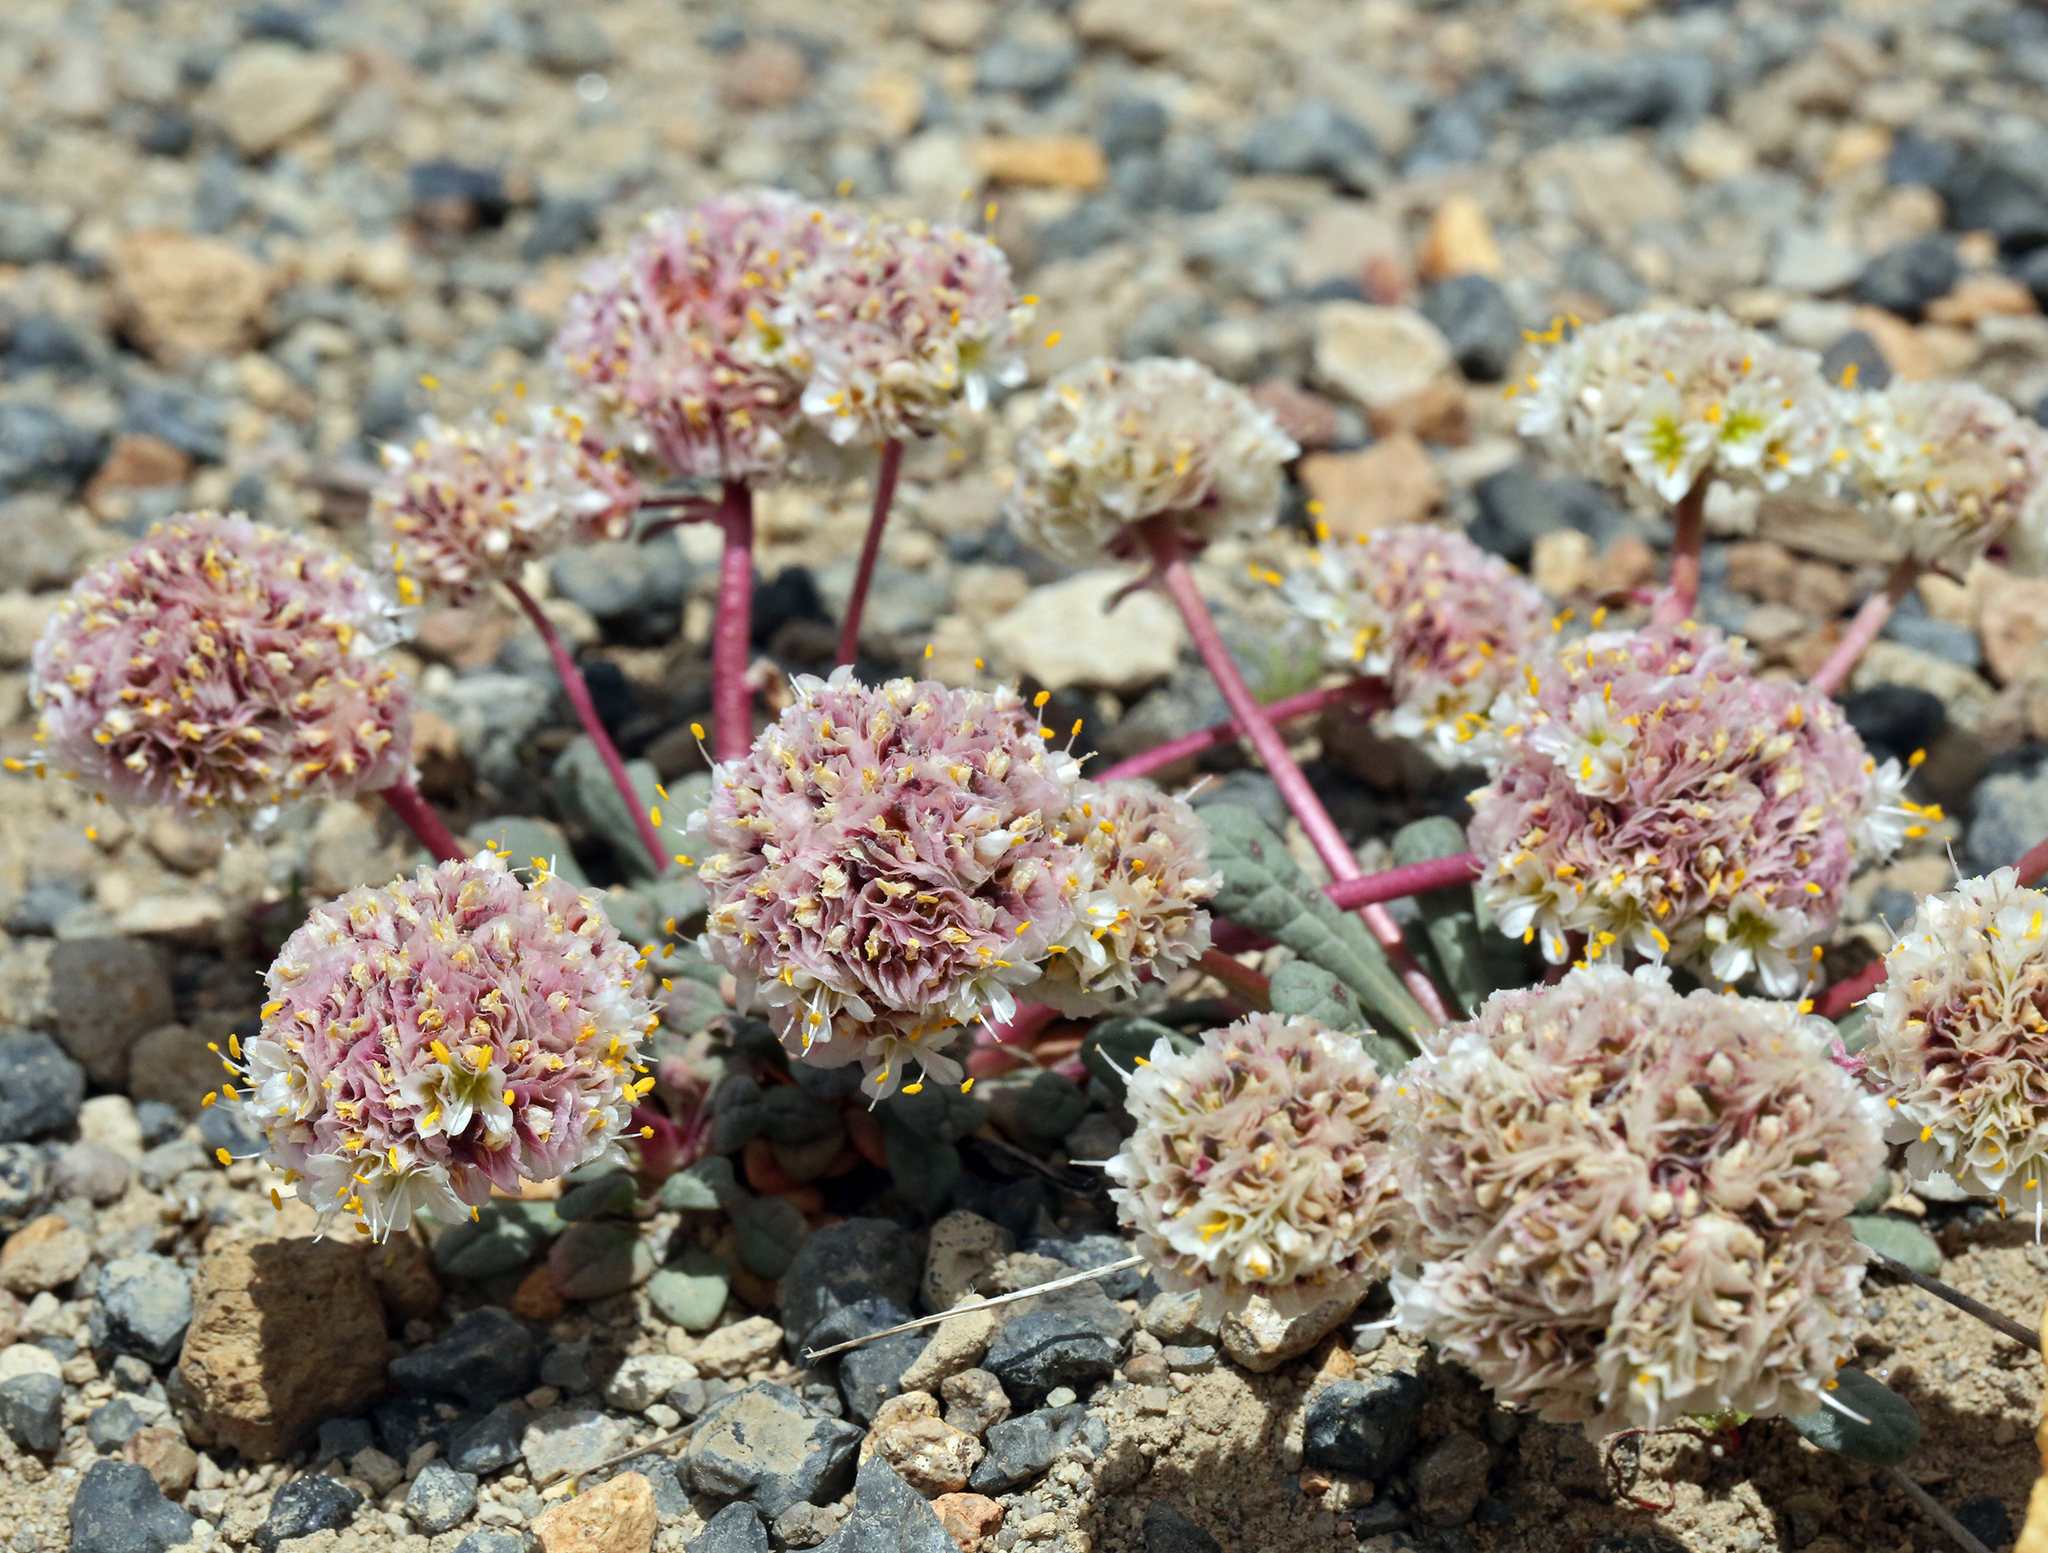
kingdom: Plantae
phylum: Tracheophyta
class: Magnoliopsida
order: Caryophyllales
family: Montiaceae
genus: Calyptridium
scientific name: Calyptridium monospermum
